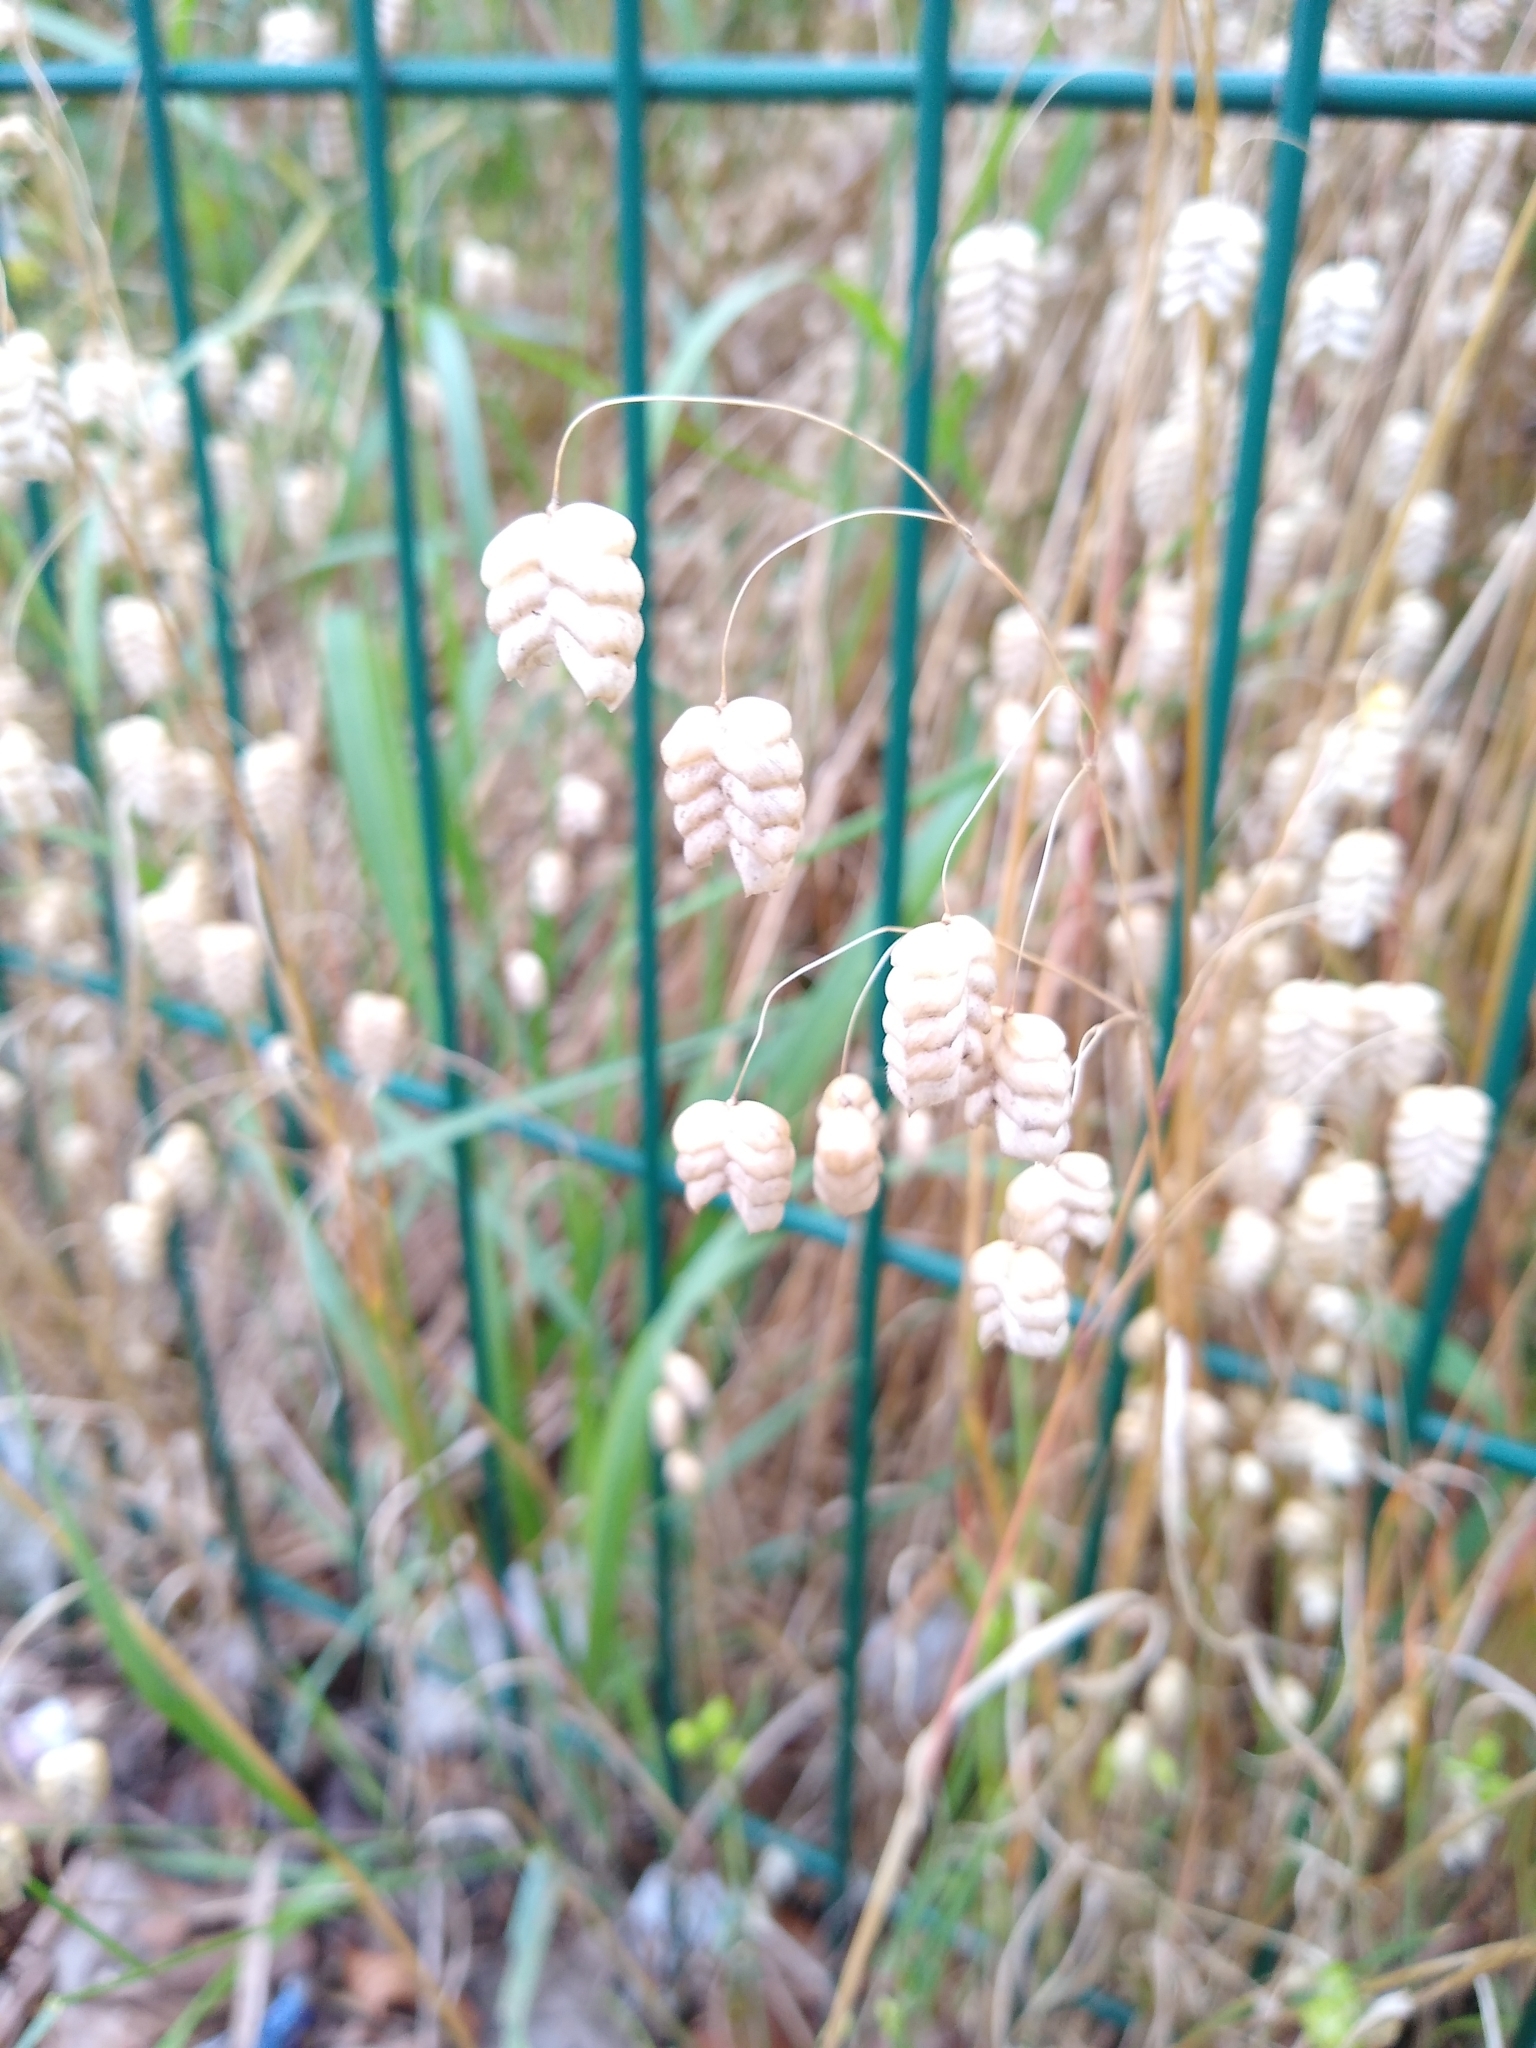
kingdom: Plantae
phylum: Tracheophyta
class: Liliopsida
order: Poales
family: Poaceae
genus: Briza
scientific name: Briza maxima
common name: Big quakinggrass
